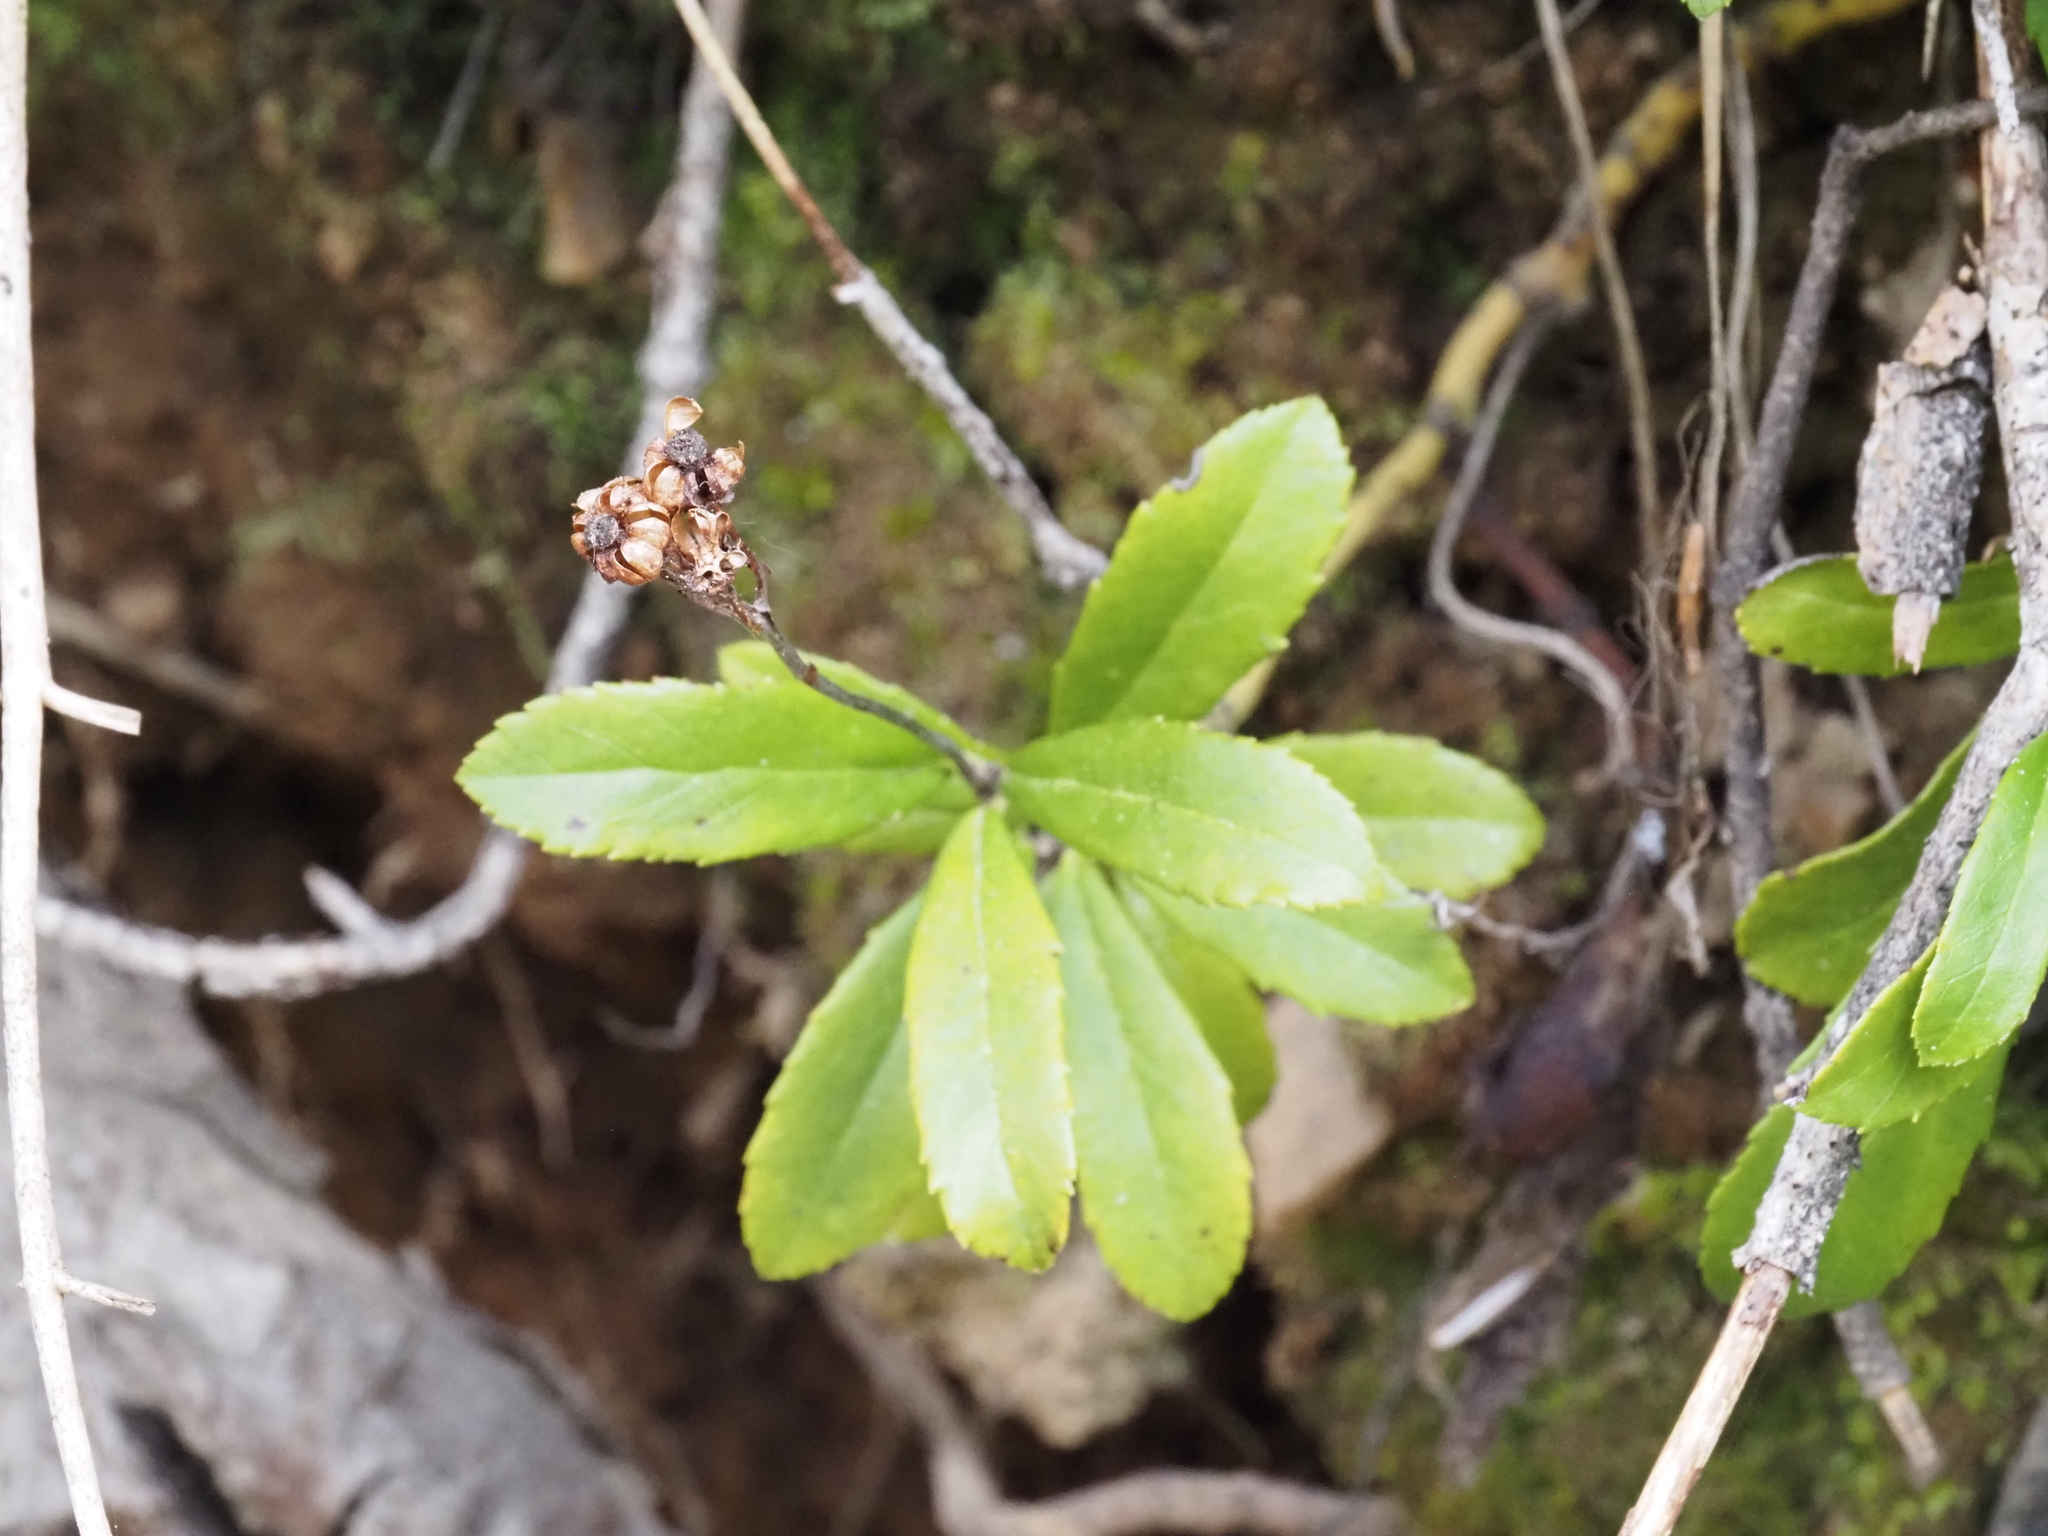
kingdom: Plantae
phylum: Tracheophyta
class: Magnoliopsida
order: Ericales
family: Ericaceae
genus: Chimaphila
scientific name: Chimaphila umbellata
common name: Pipsissewa
